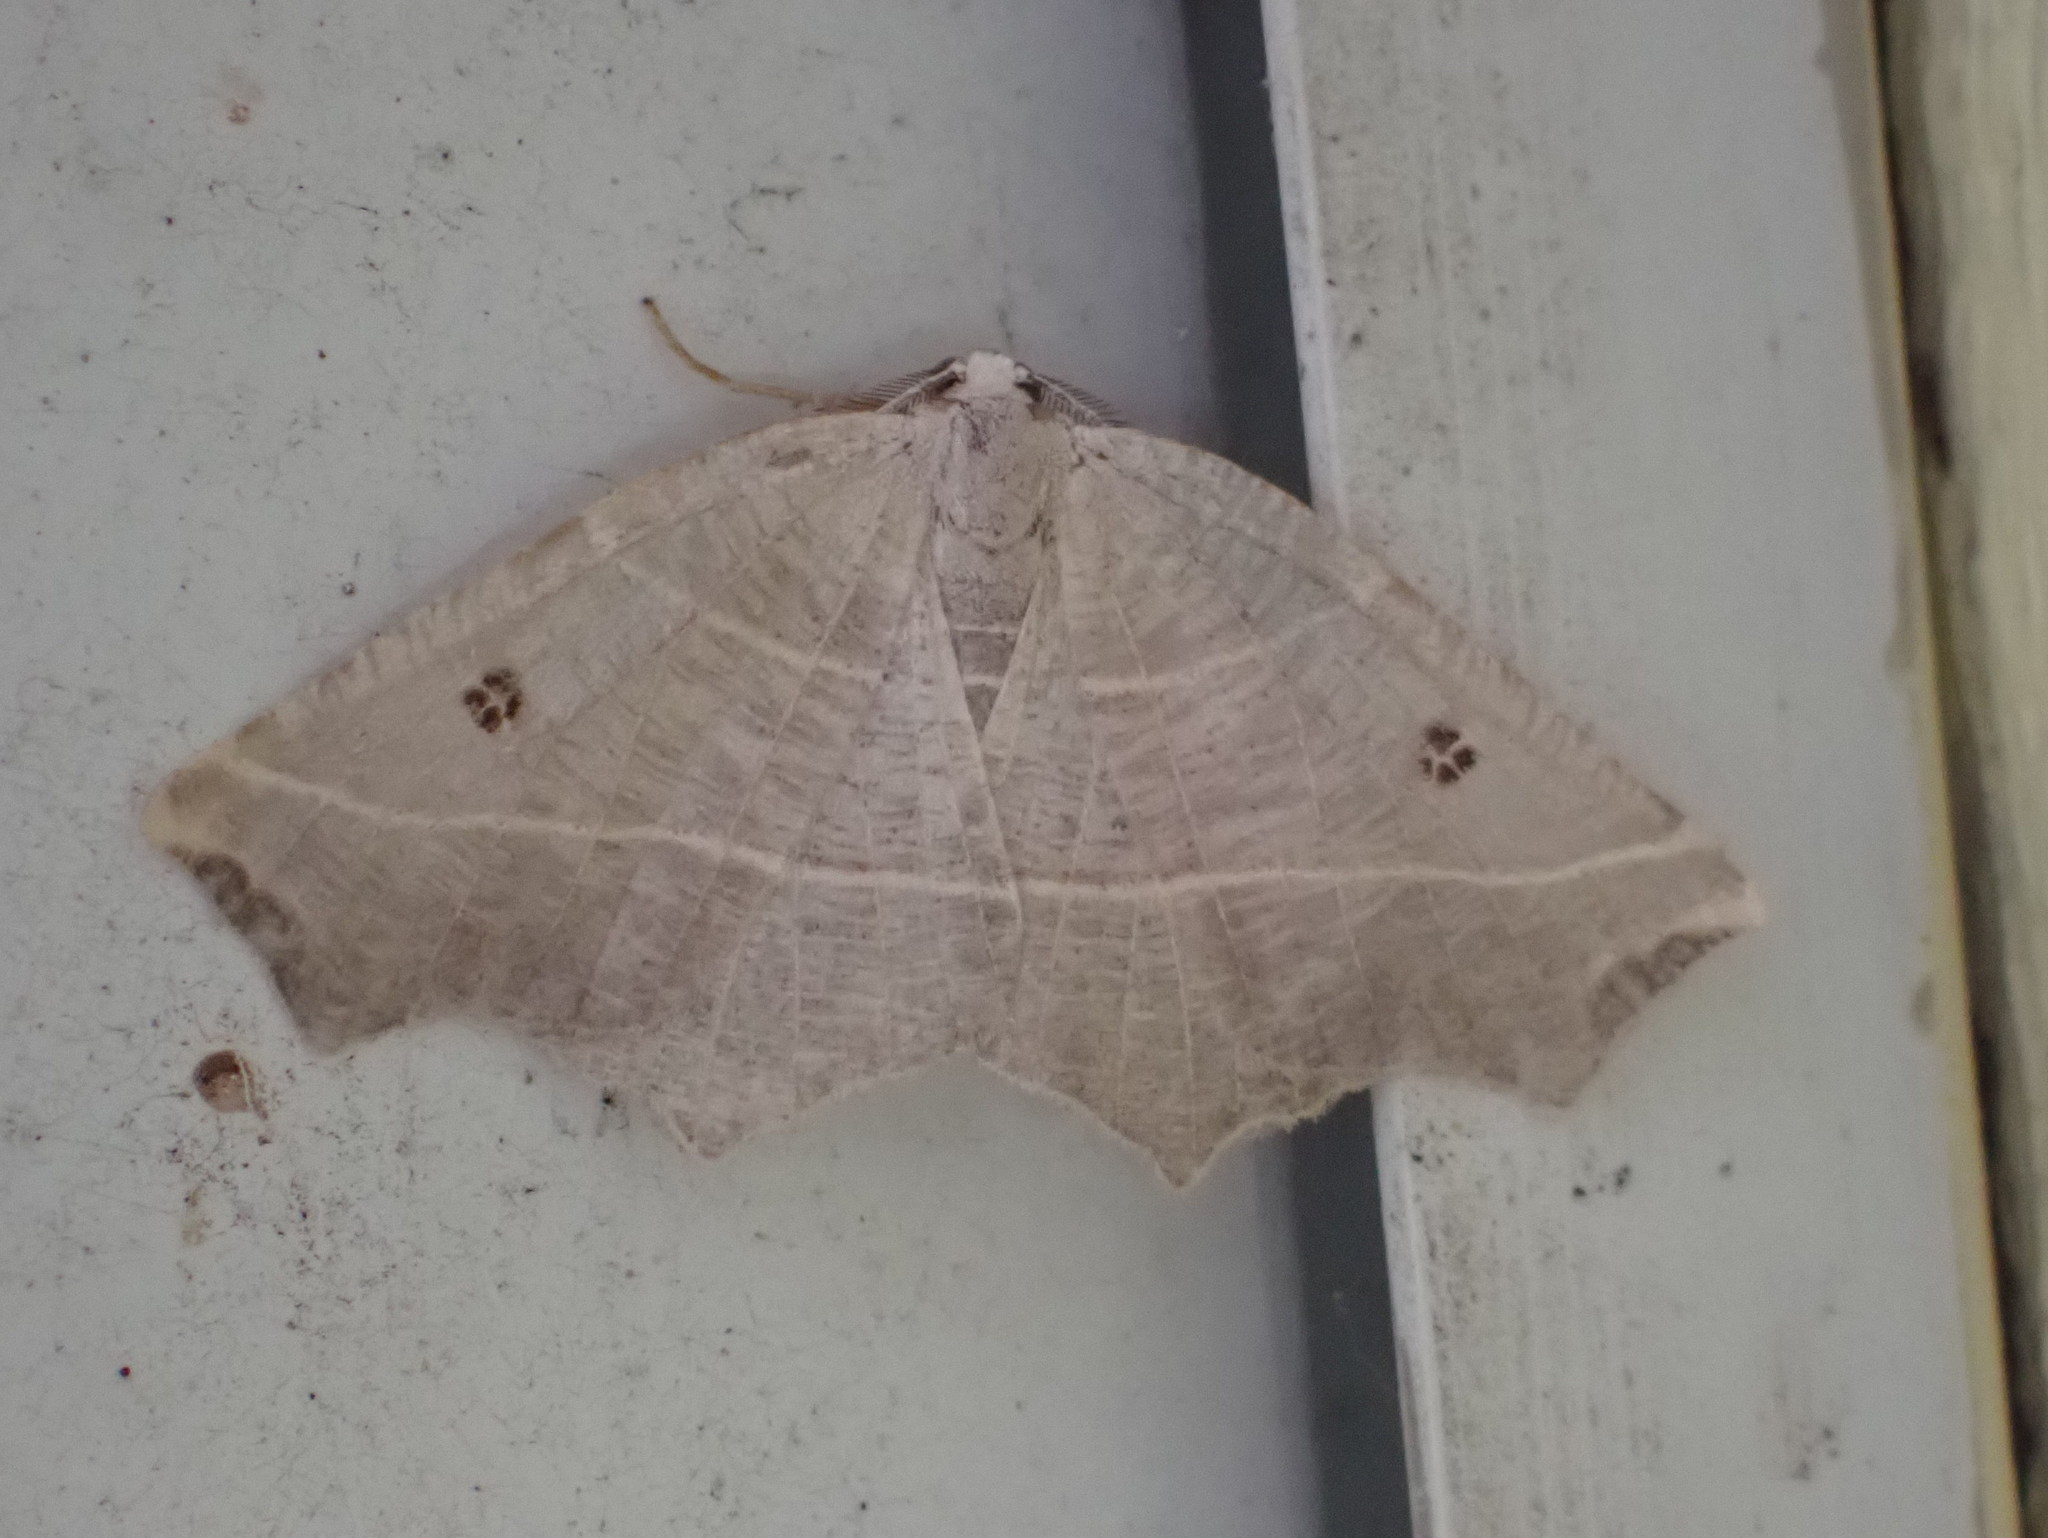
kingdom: Animalia
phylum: Arthropoda
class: Insecta
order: Lepidoptera
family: Geometridae
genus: Metanema
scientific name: Metanema inatomaria
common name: Pale metanema
